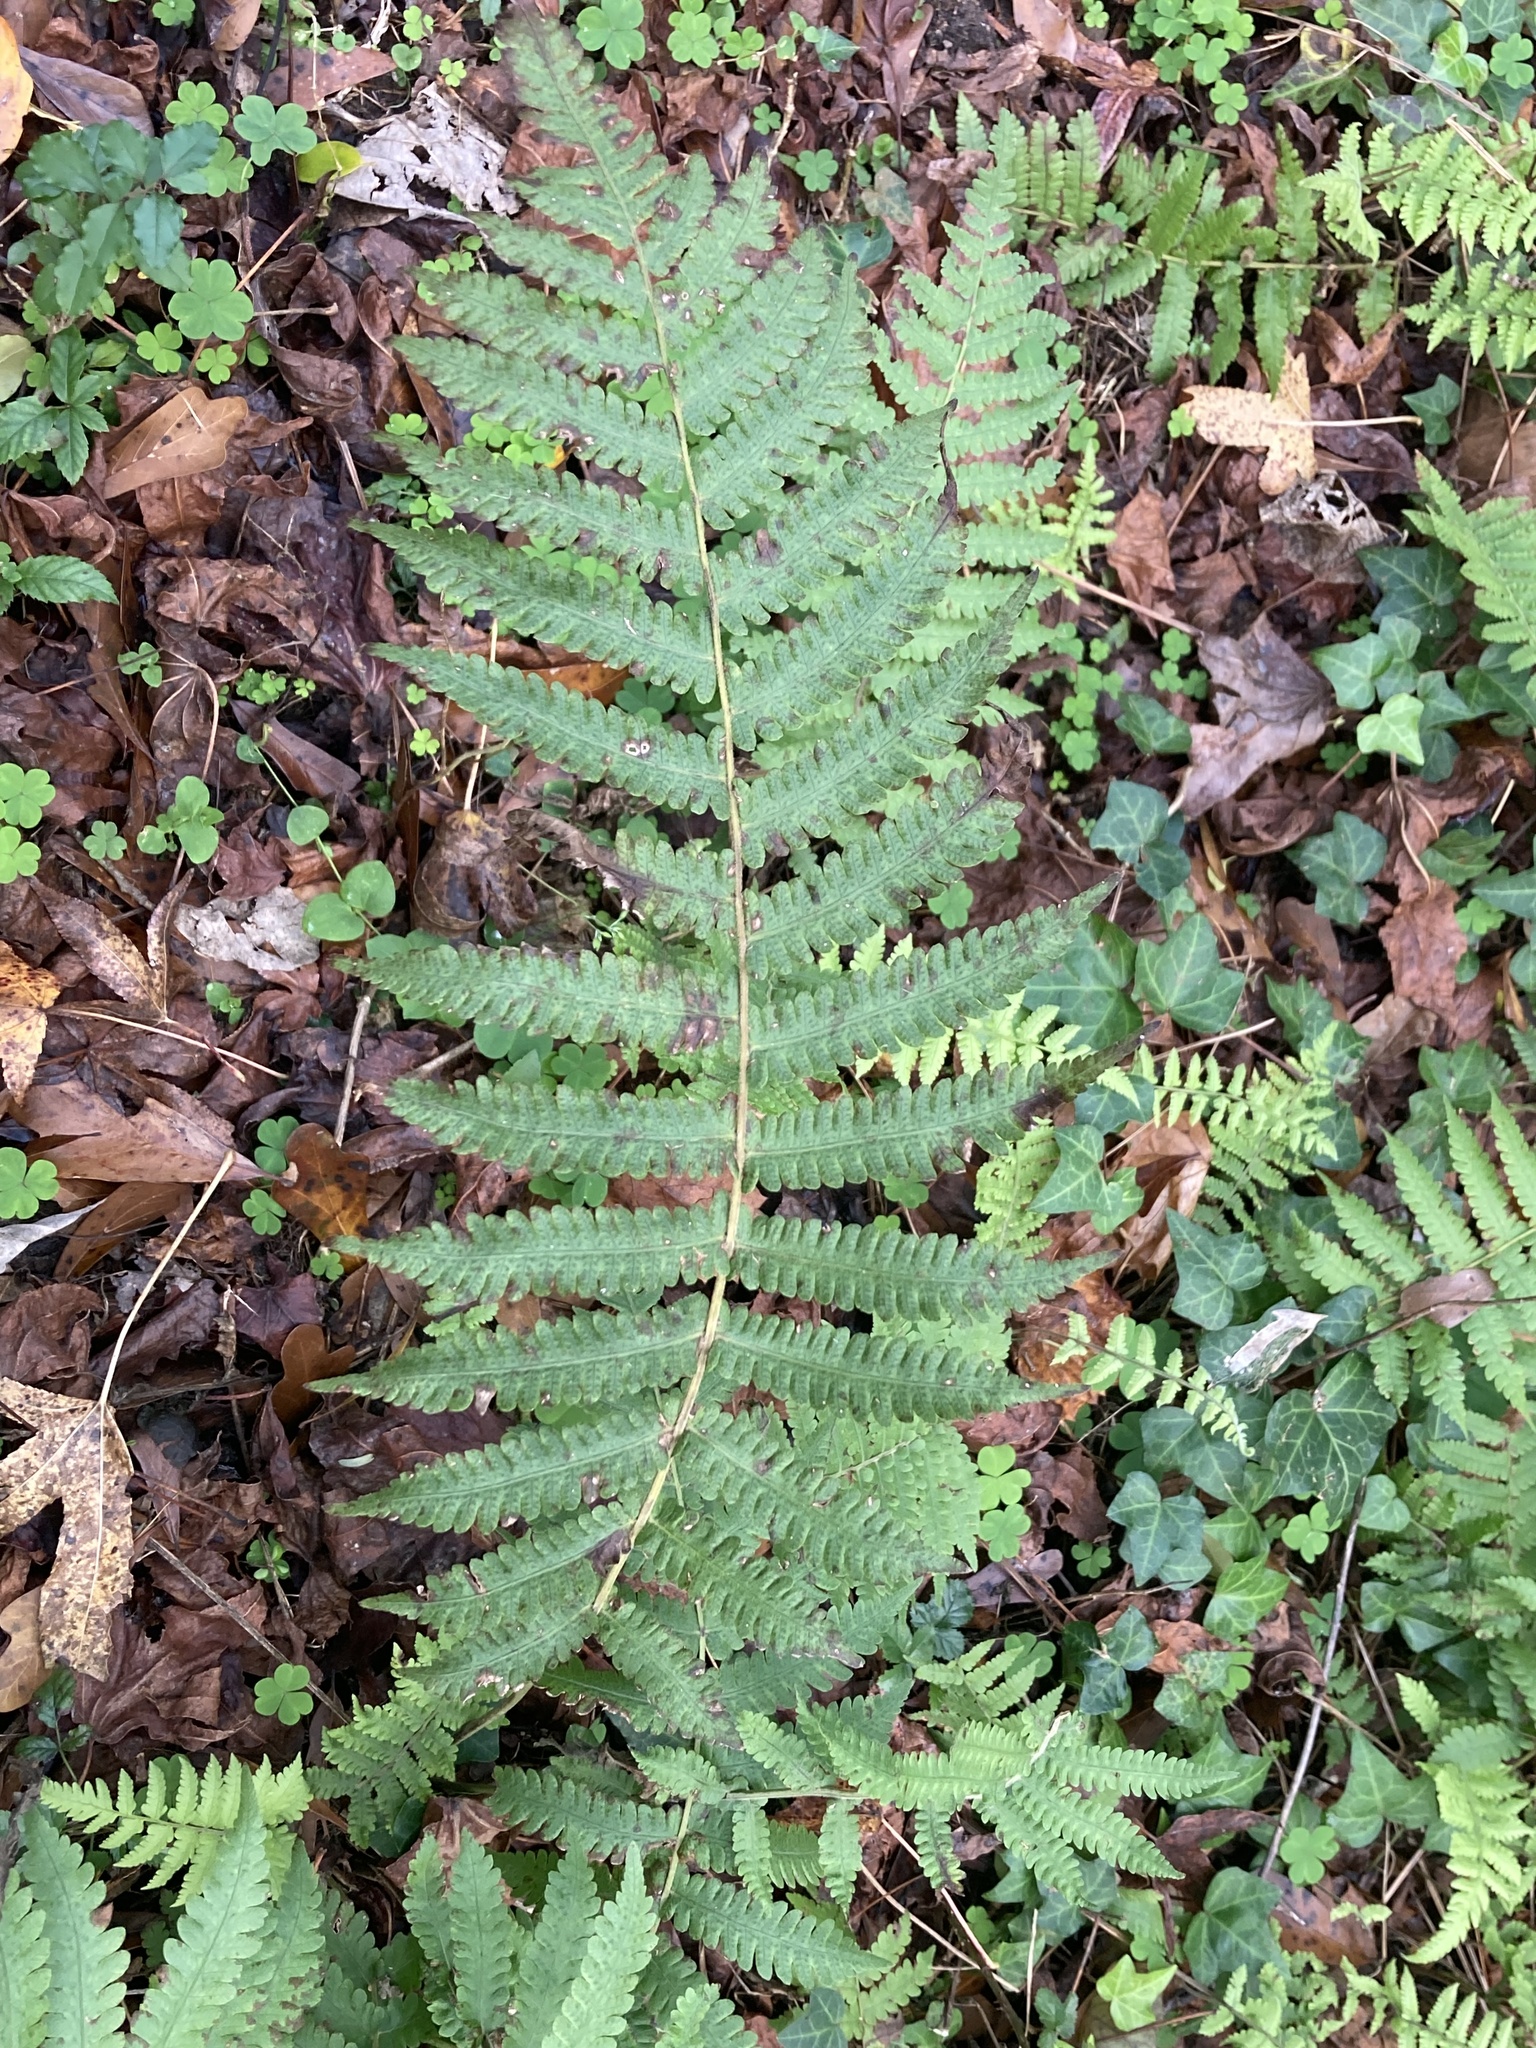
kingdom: Plantae
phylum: Tracheophyta
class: Polypodiopsida
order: Polypodiales
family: Thelypteridaceae
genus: Christella
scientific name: Christella dentata
